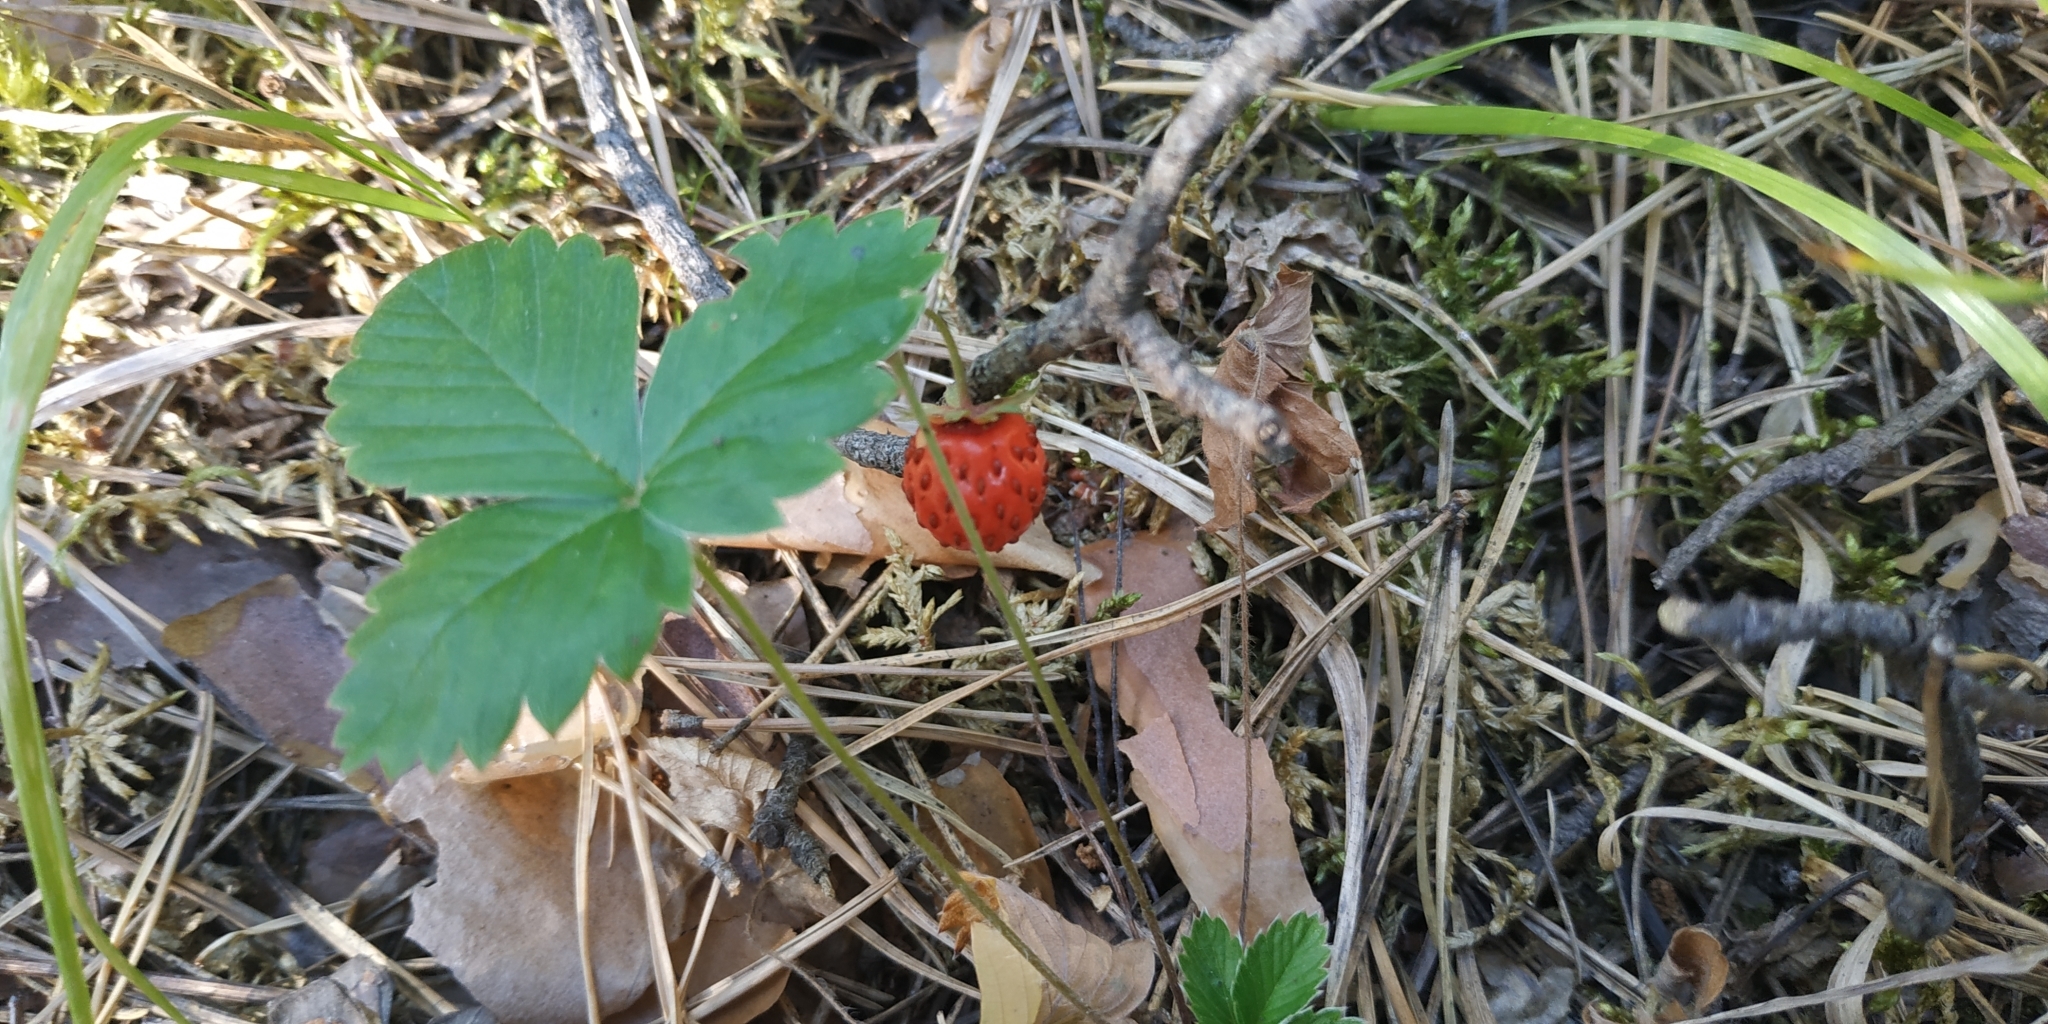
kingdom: Plantae
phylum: Tracheophyta
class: Magnoliopsida
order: Rosales
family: Rosaceae
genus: Fragaria
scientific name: Fragaria vesca
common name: Wild strawberry
